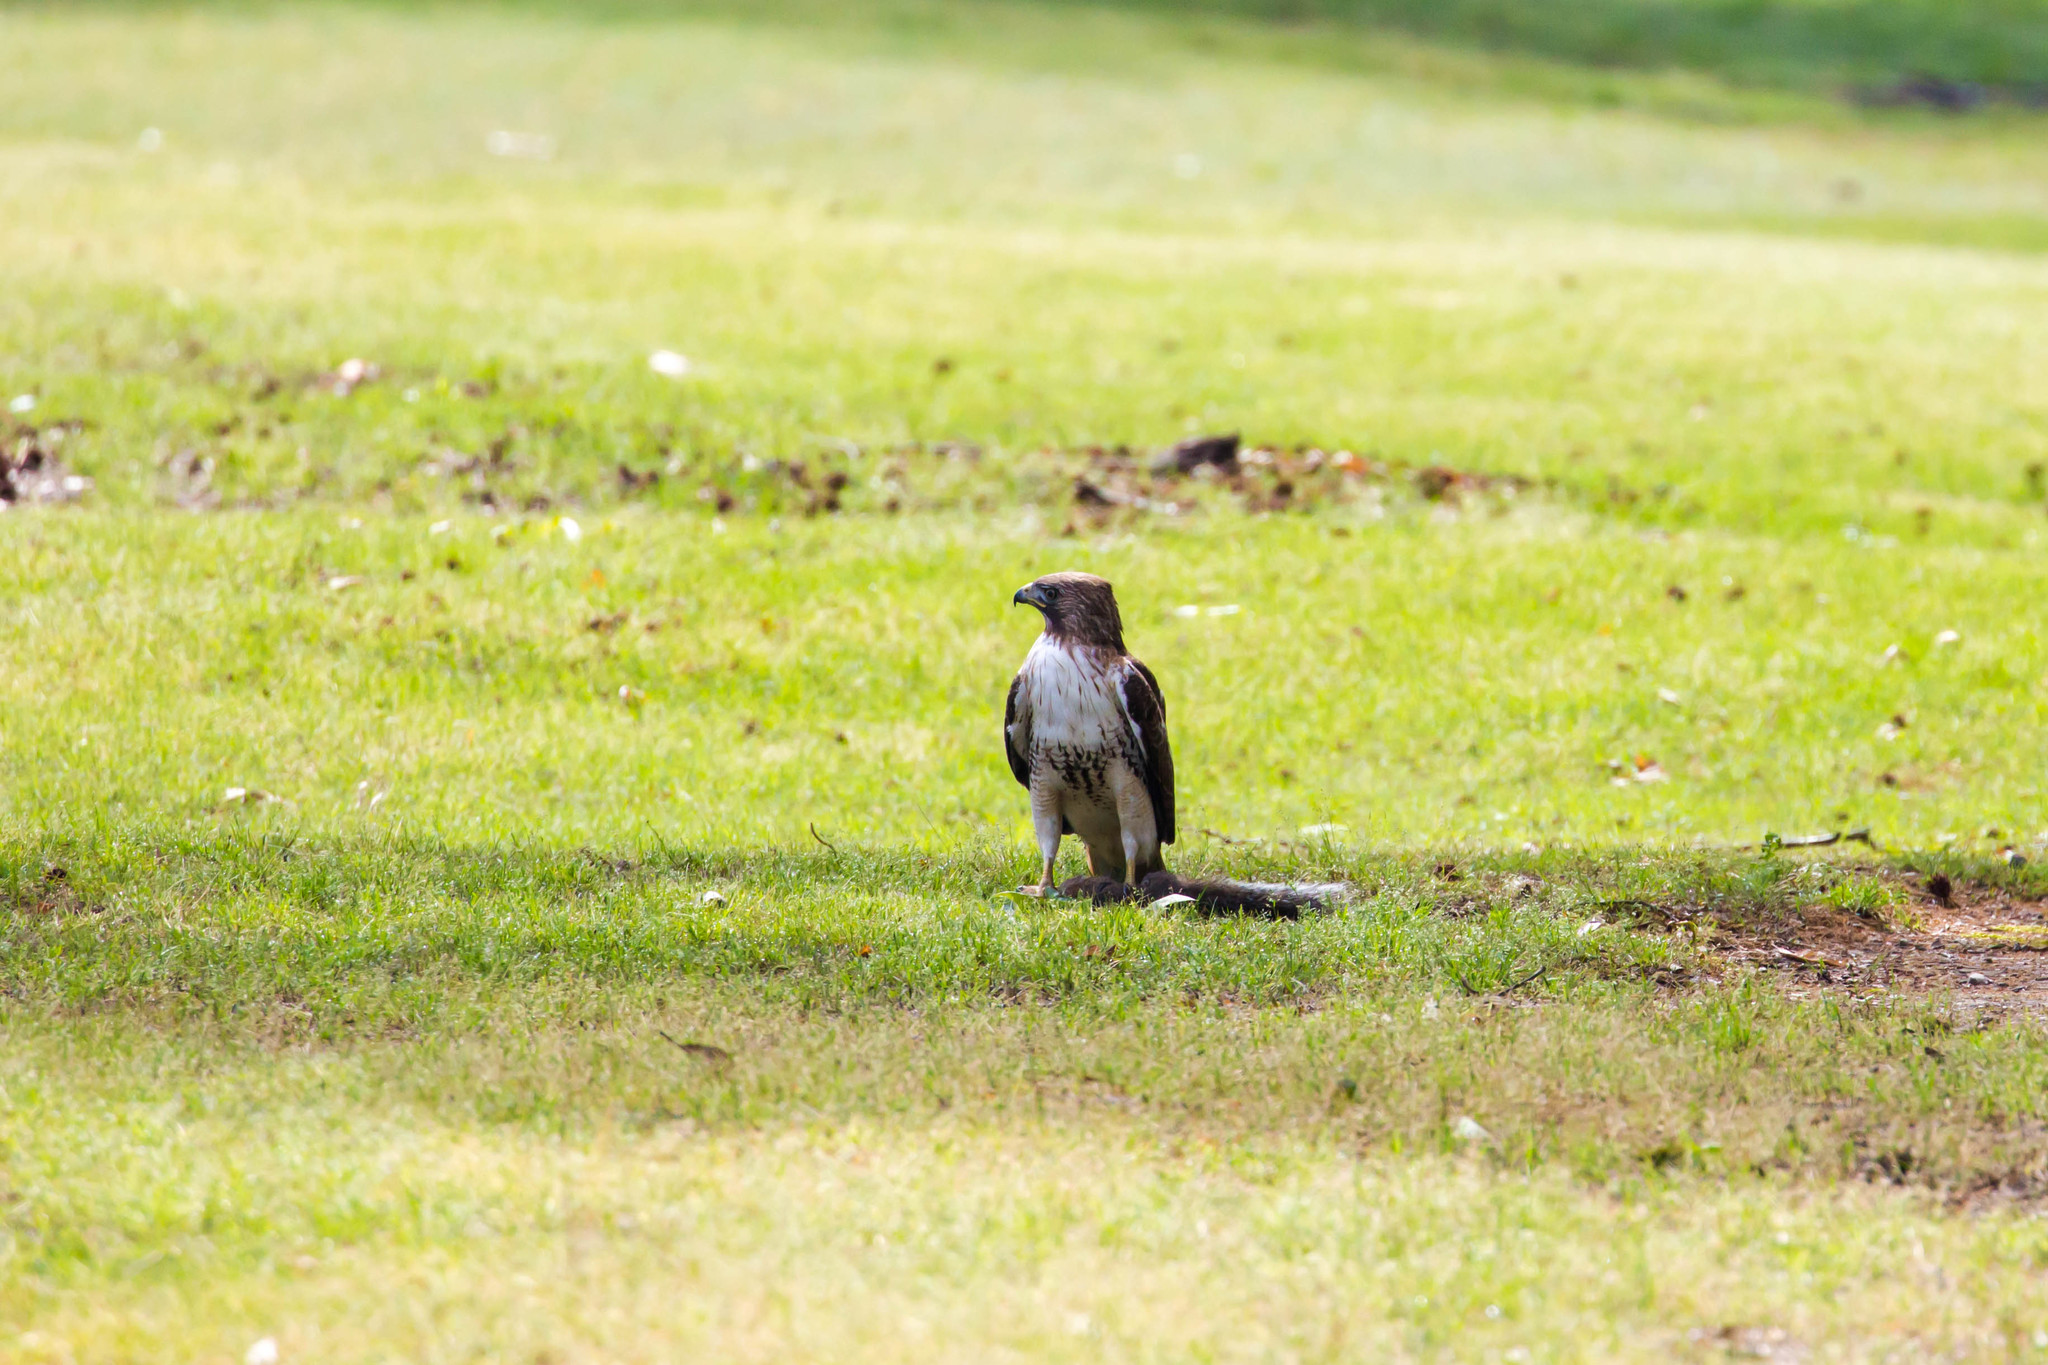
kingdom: Animalia
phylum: Chordata
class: Aves
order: Accipitriformes
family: Accipitridae
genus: Buteo
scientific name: Buteo jamaicensis
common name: Red-tailed hawk
